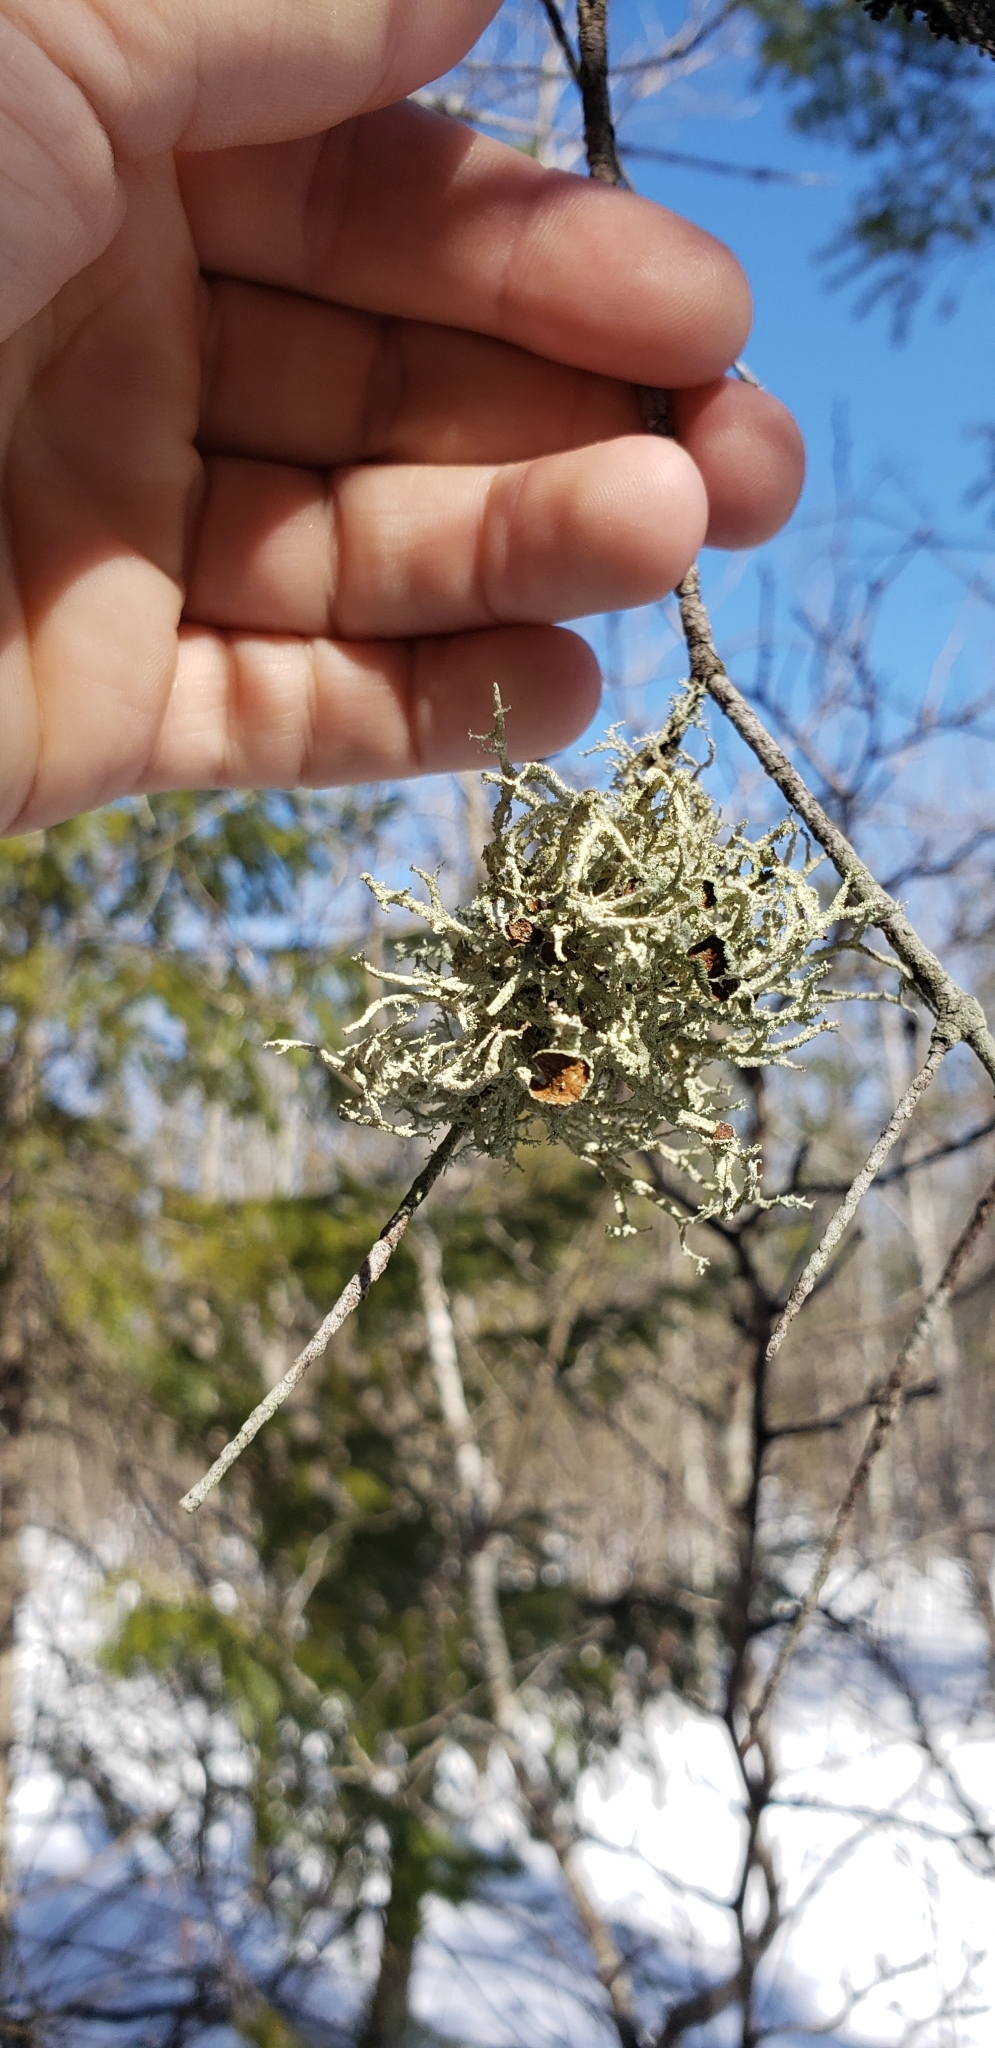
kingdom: Fungi
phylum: Ascomycota
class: Lecanoromycetes
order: Lecanorales
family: Parmeliaceae
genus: Evernia
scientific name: Evernia mesomorpha
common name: Boreal oak moss lichen
